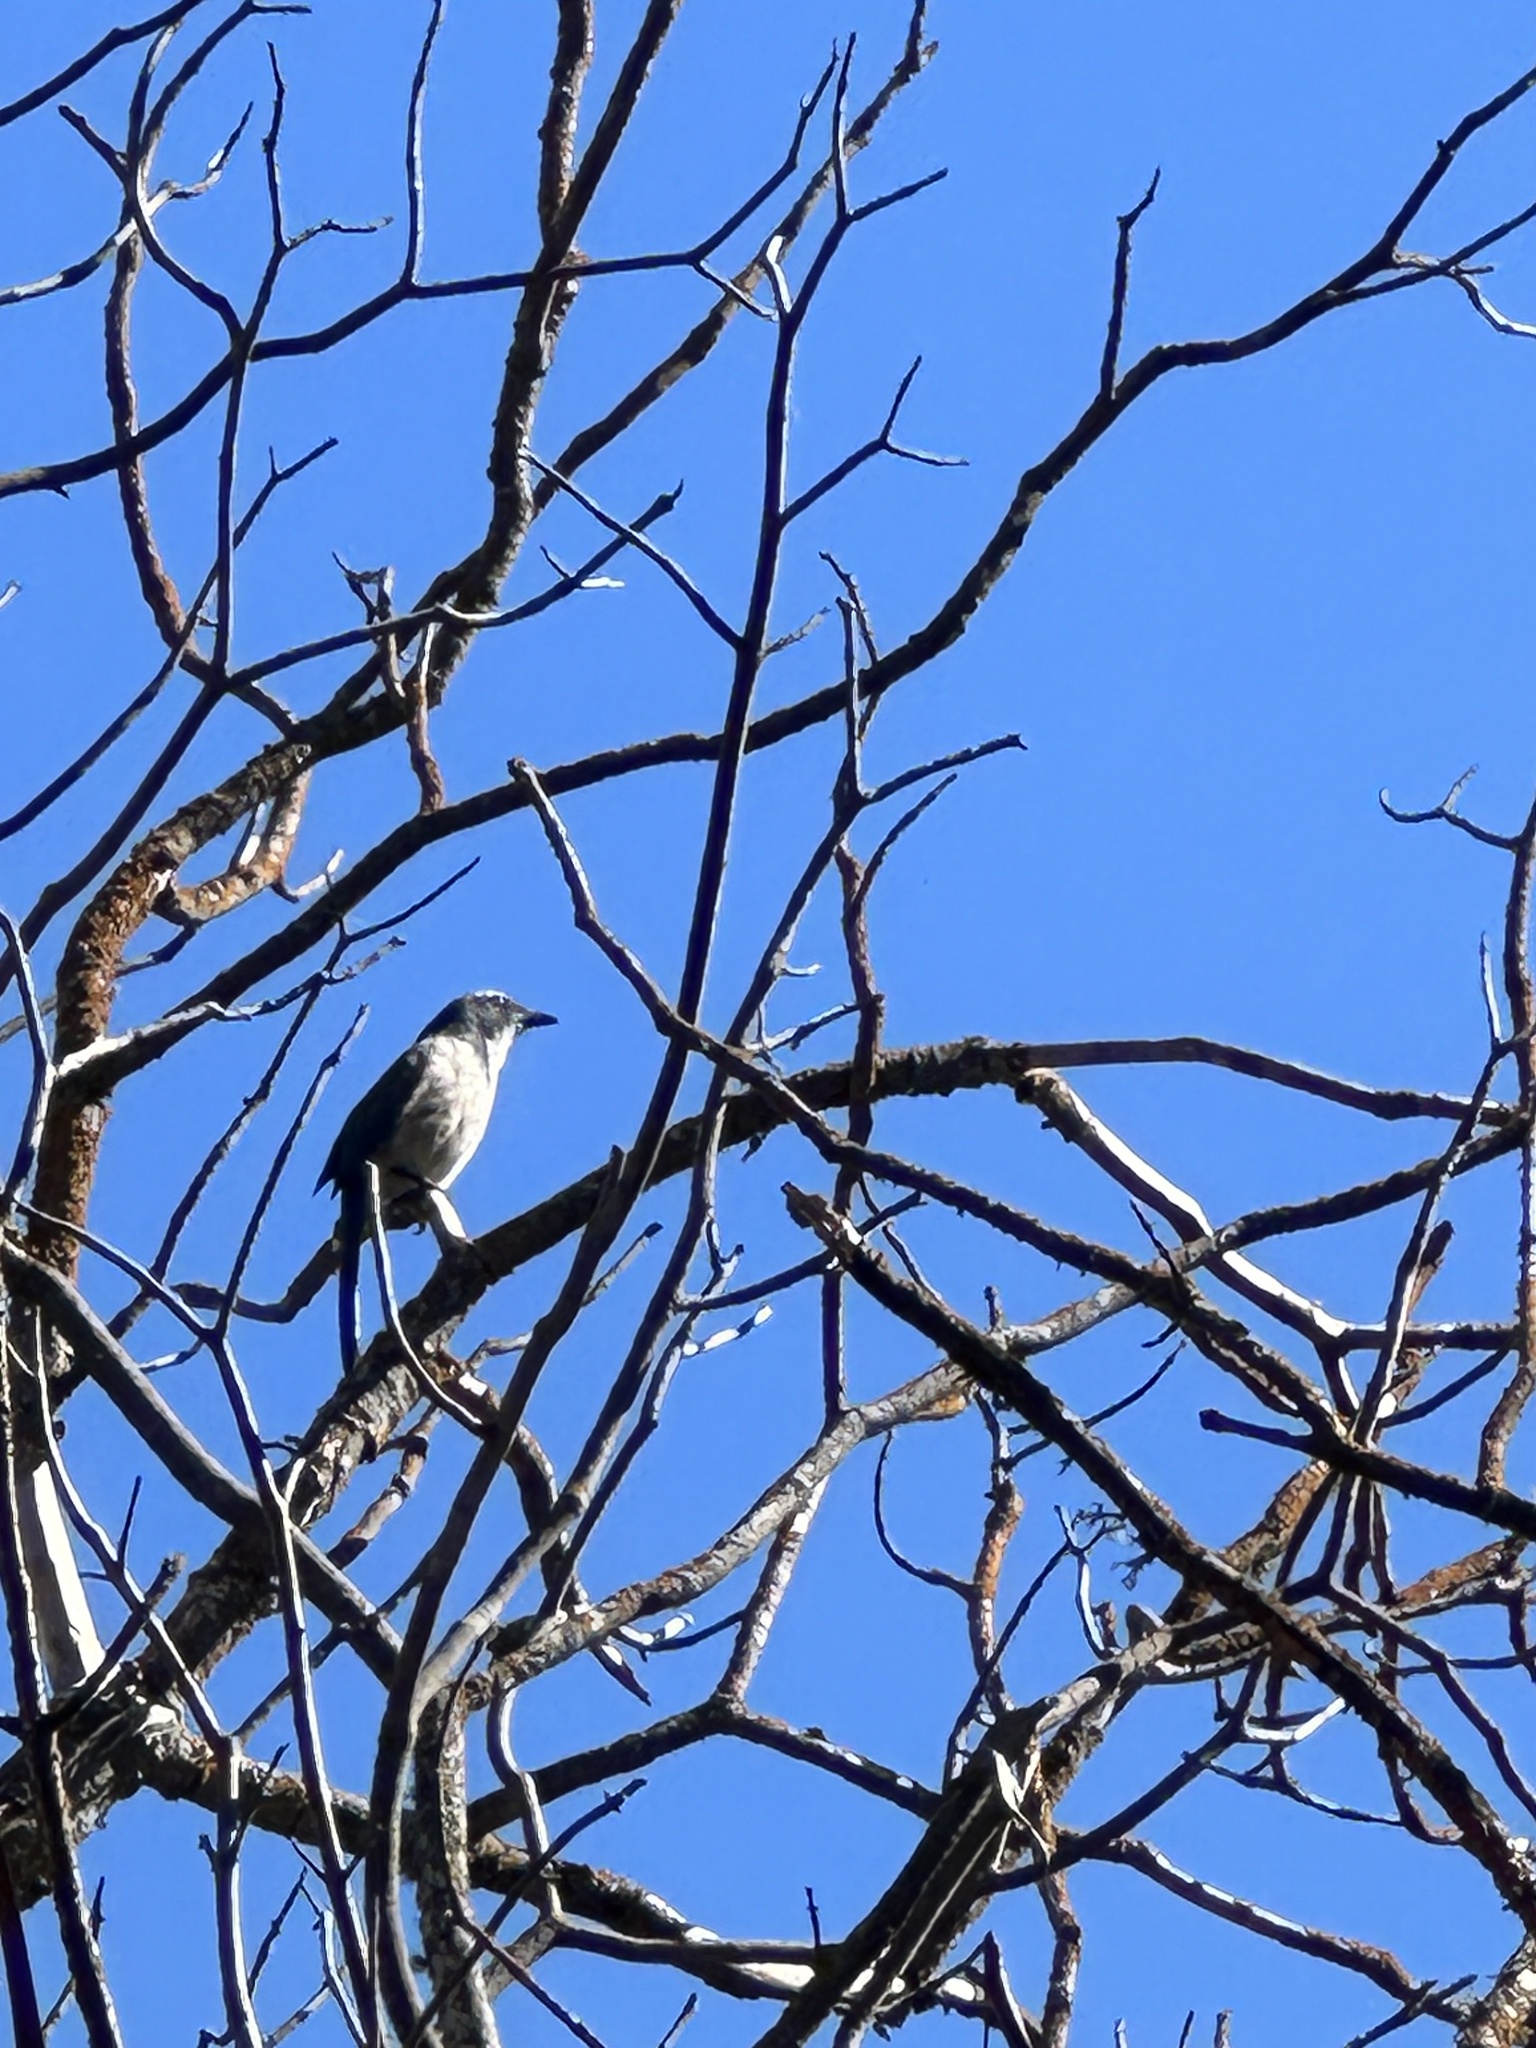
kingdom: Animalia
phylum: Chordata
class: Aves
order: Passeriformes
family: Corvidae
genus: Aphelocoma
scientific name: Aphelocoma californica
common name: California scrub-jay
